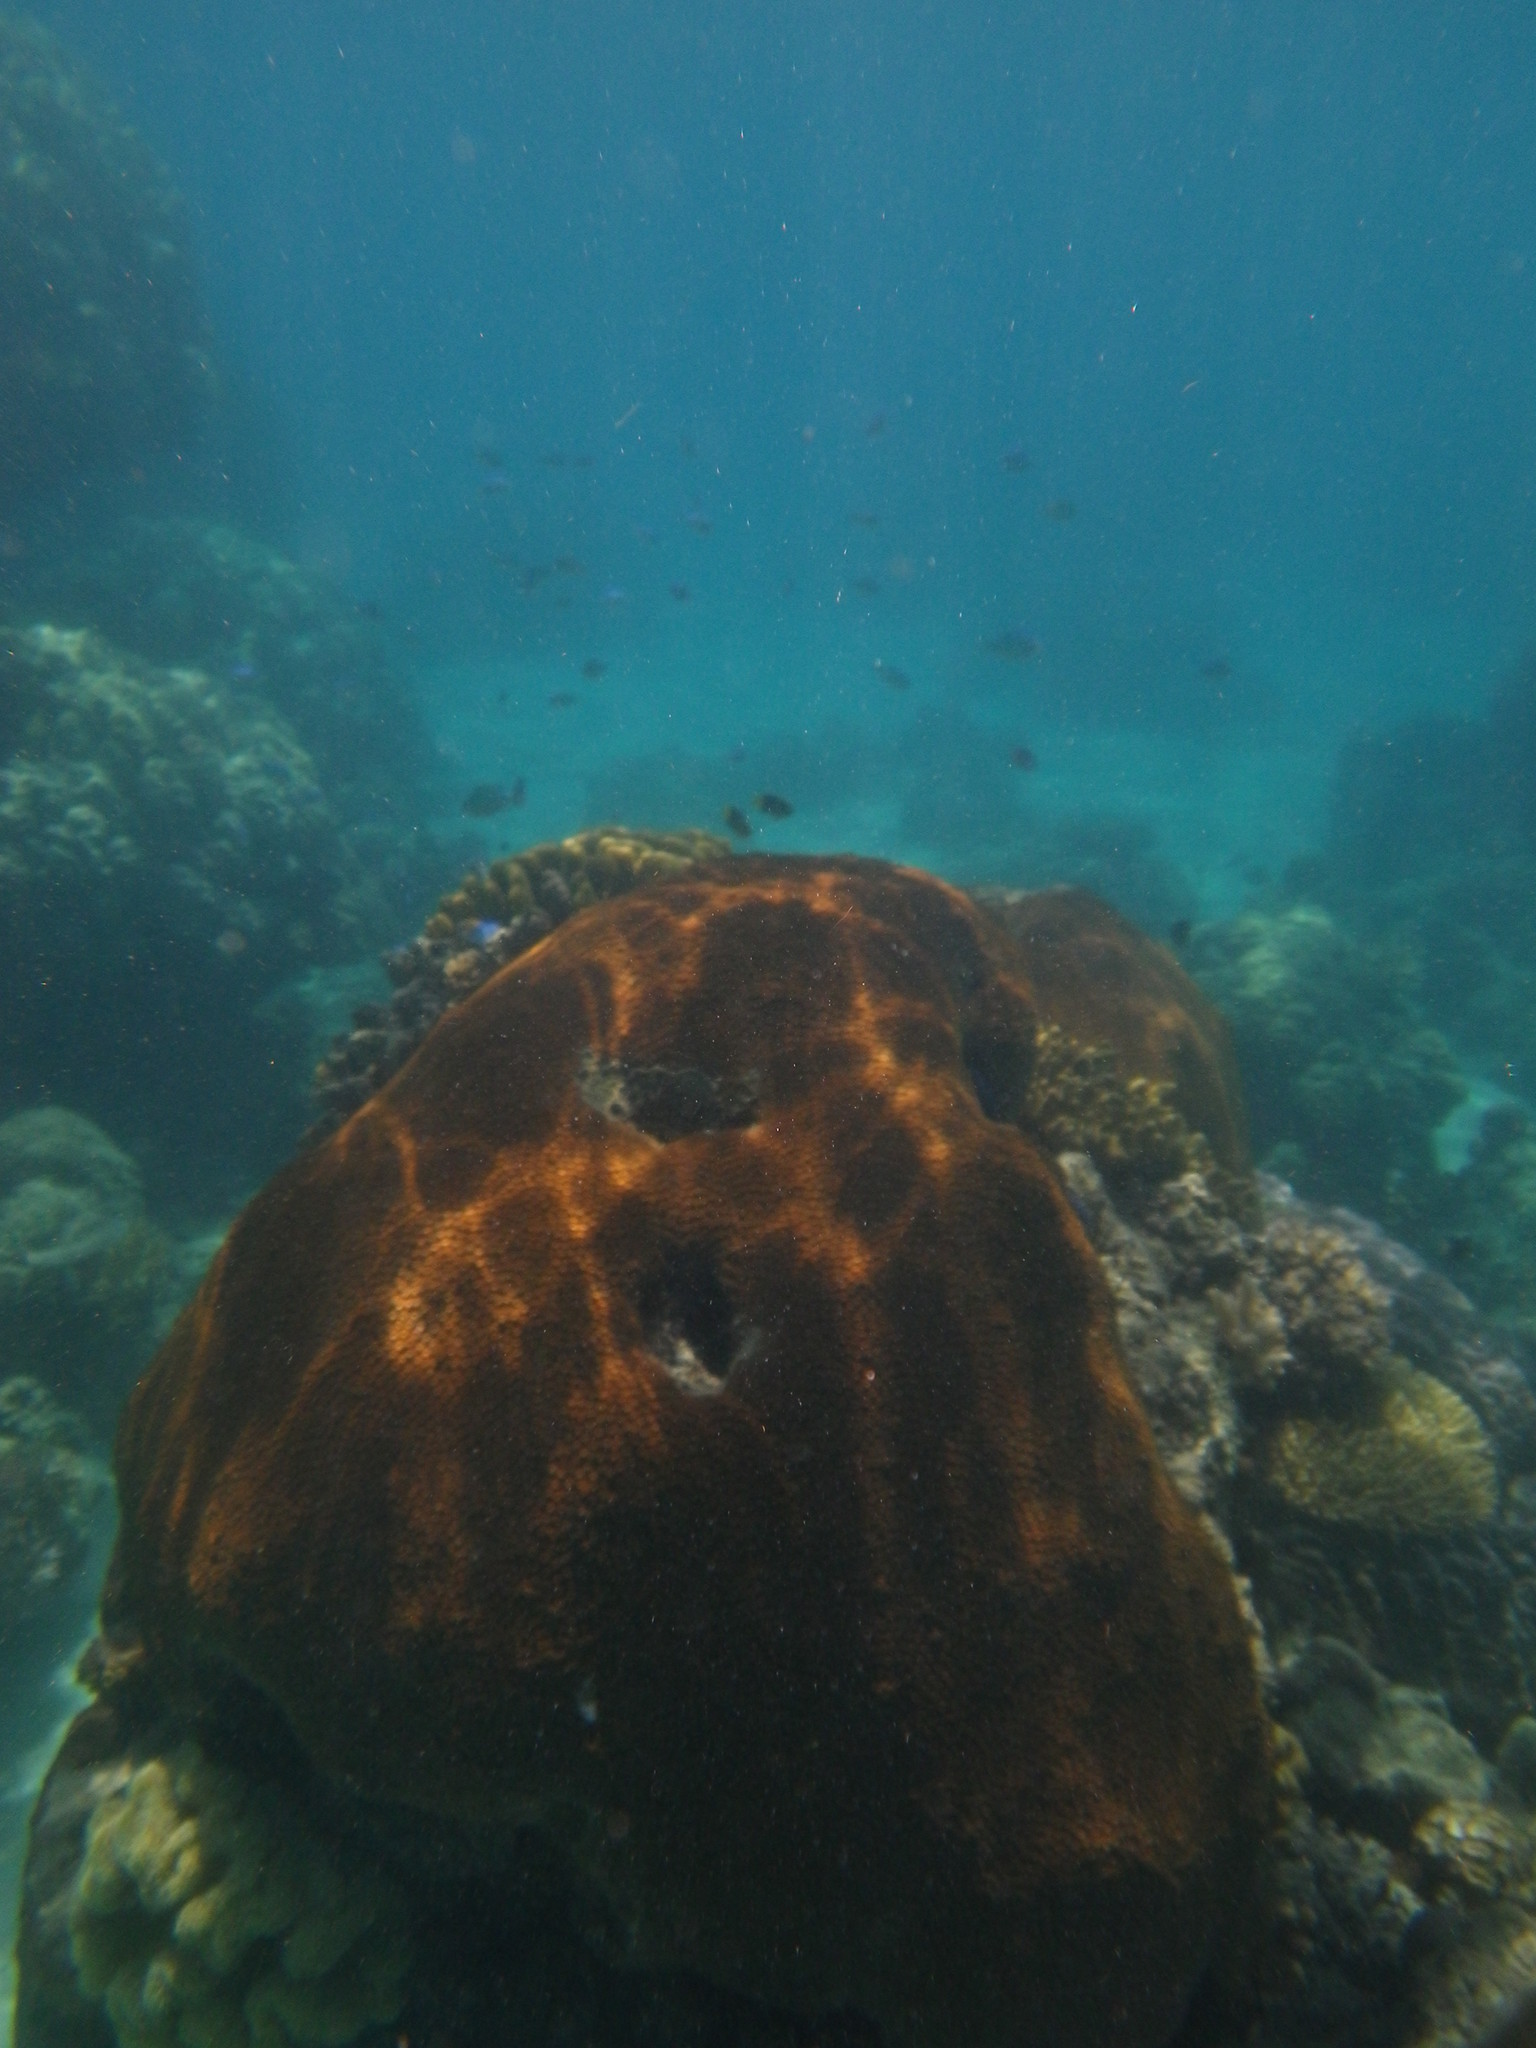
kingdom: Animalia
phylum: Cnidaria
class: Anthozoa
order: Scleractinia
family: Diploastraeidae
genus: Diploastrea
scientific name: Diploastrea heliopora
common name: Double-star coral
